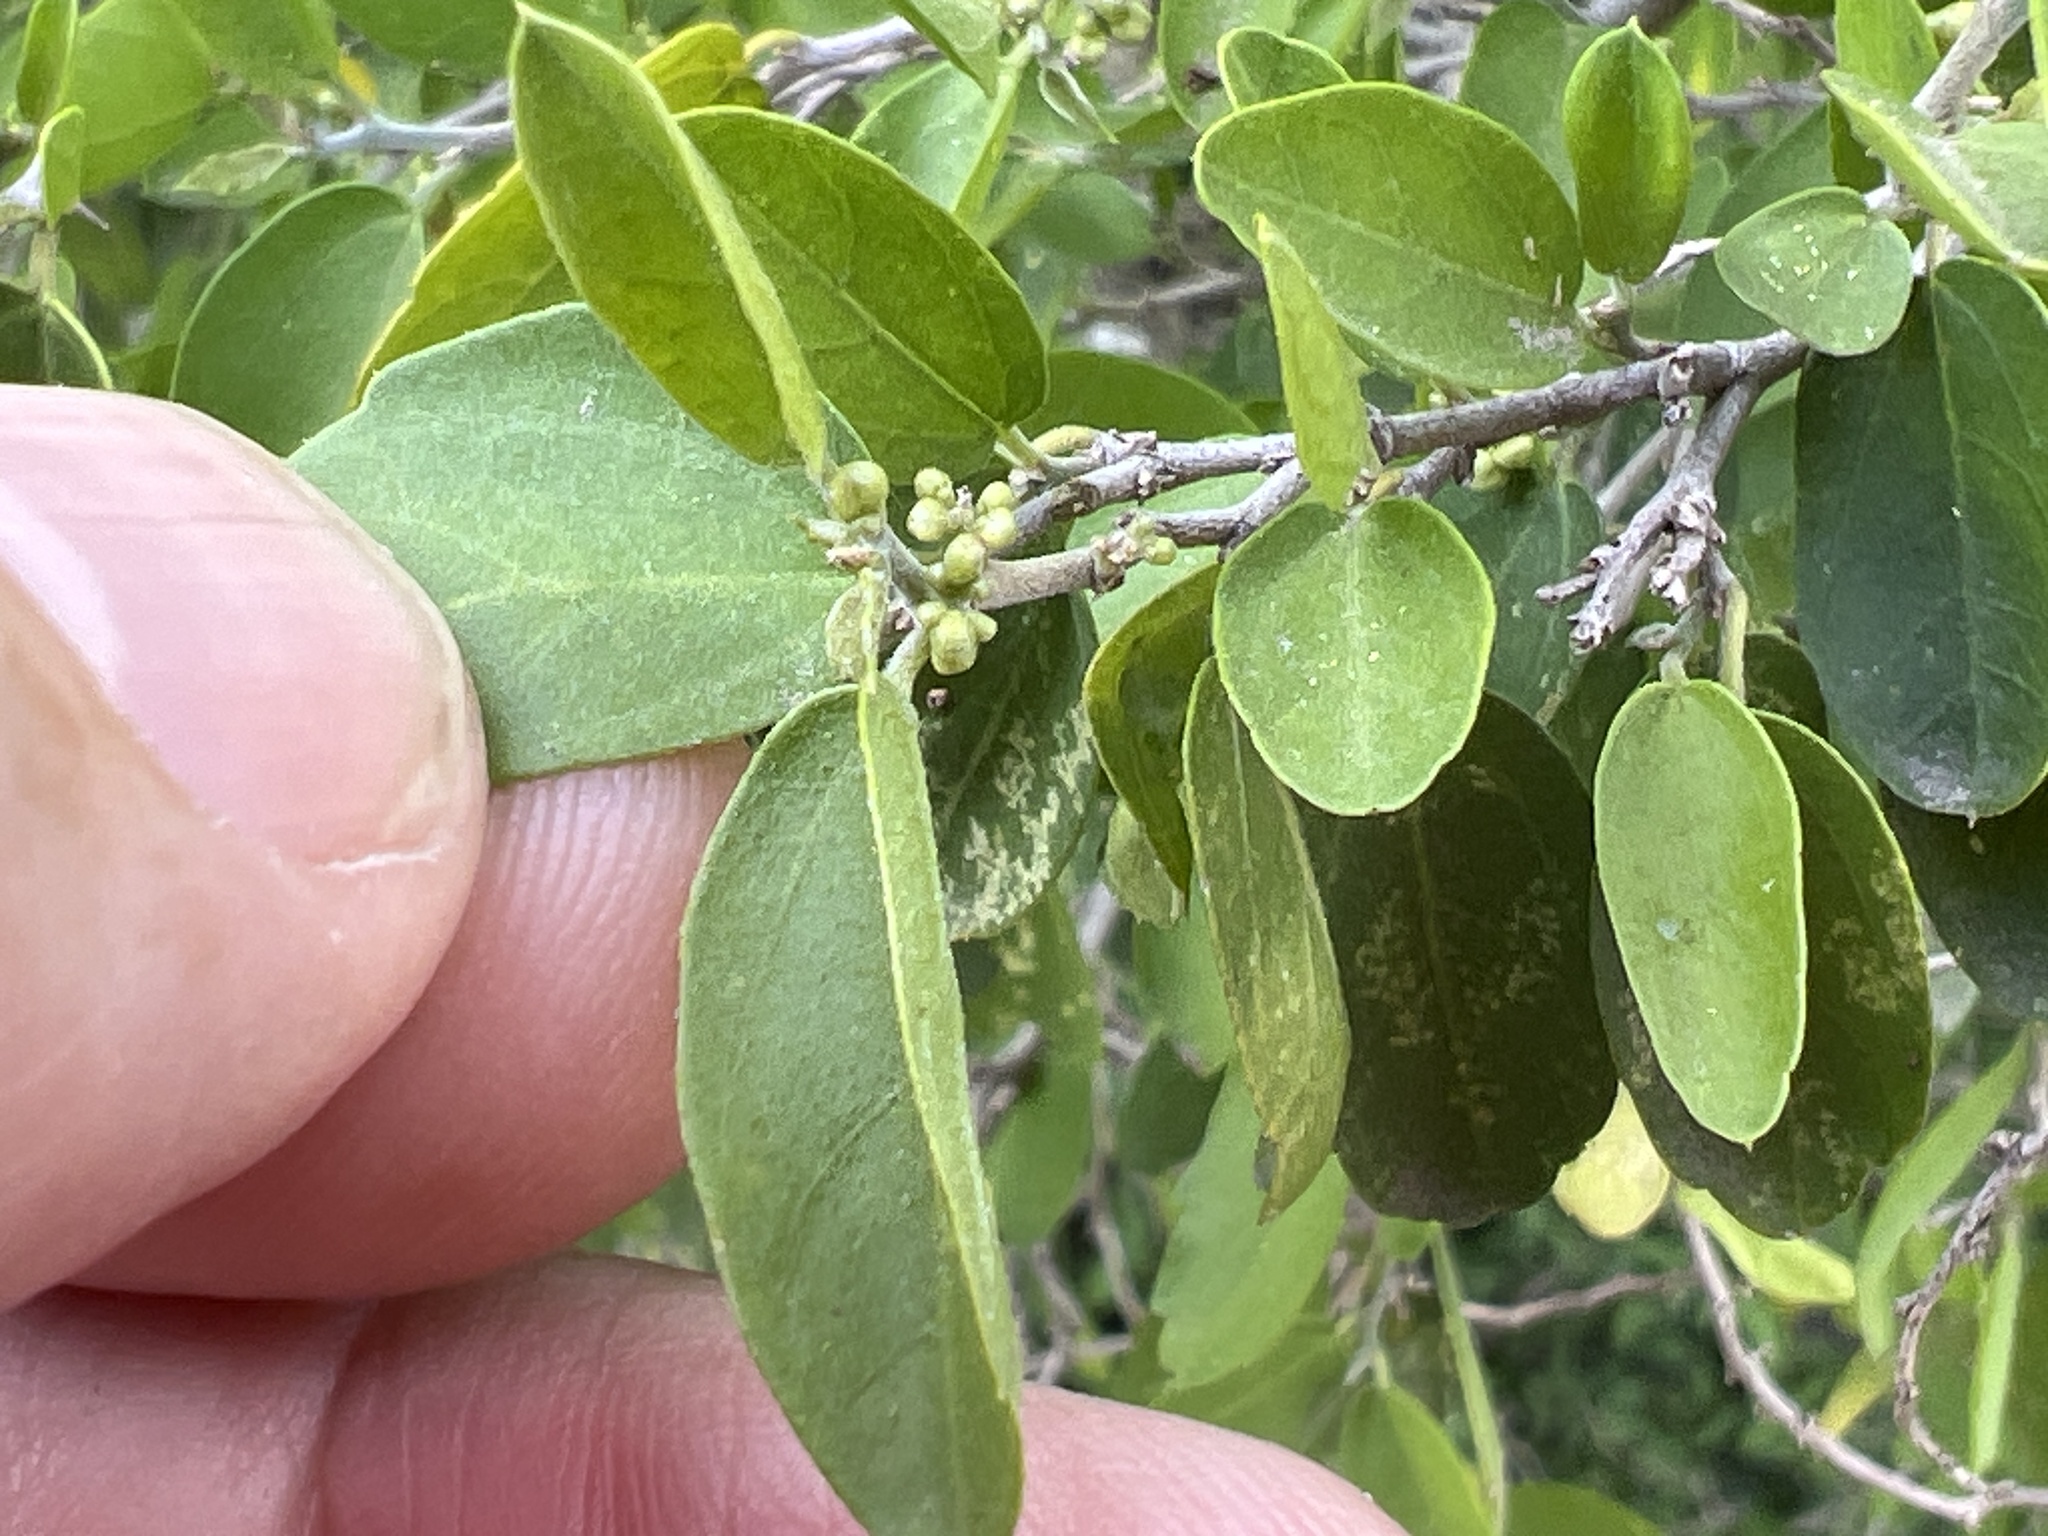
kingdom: Plantae
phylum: Tracheophyta
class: Magnoliopsida
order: Rosales
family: Cannabaceae
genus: Celtis
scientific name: Celtis pallida
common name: Desert hackberry
